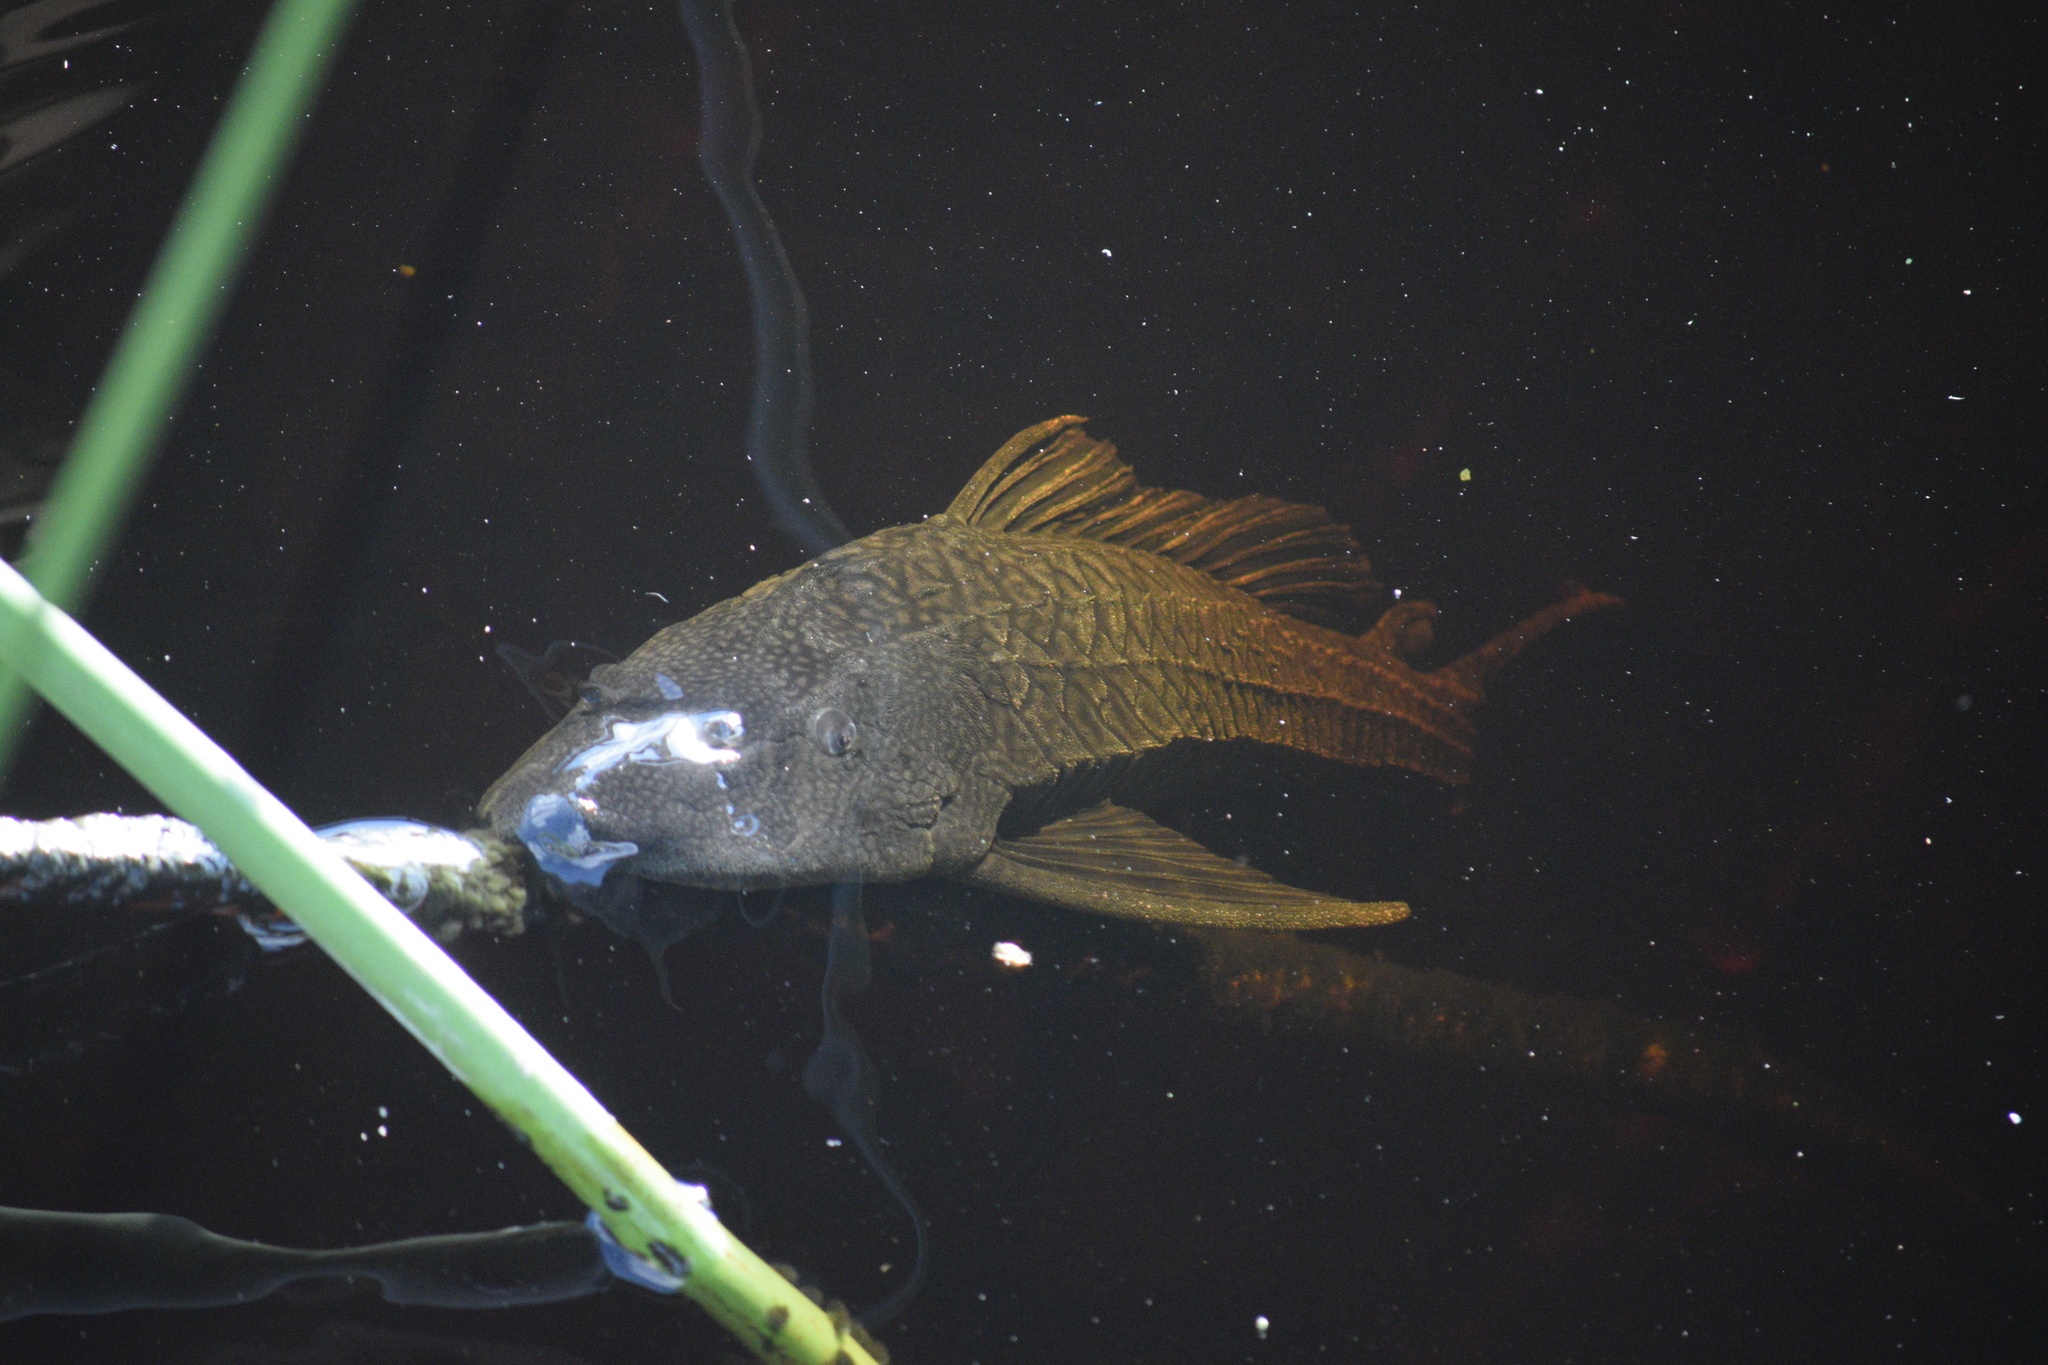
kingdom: Animalia
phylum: Chordata
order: Siluriformes
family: Loricariidae
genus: Pterygoplichthys
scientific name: Pterygoplichthys
